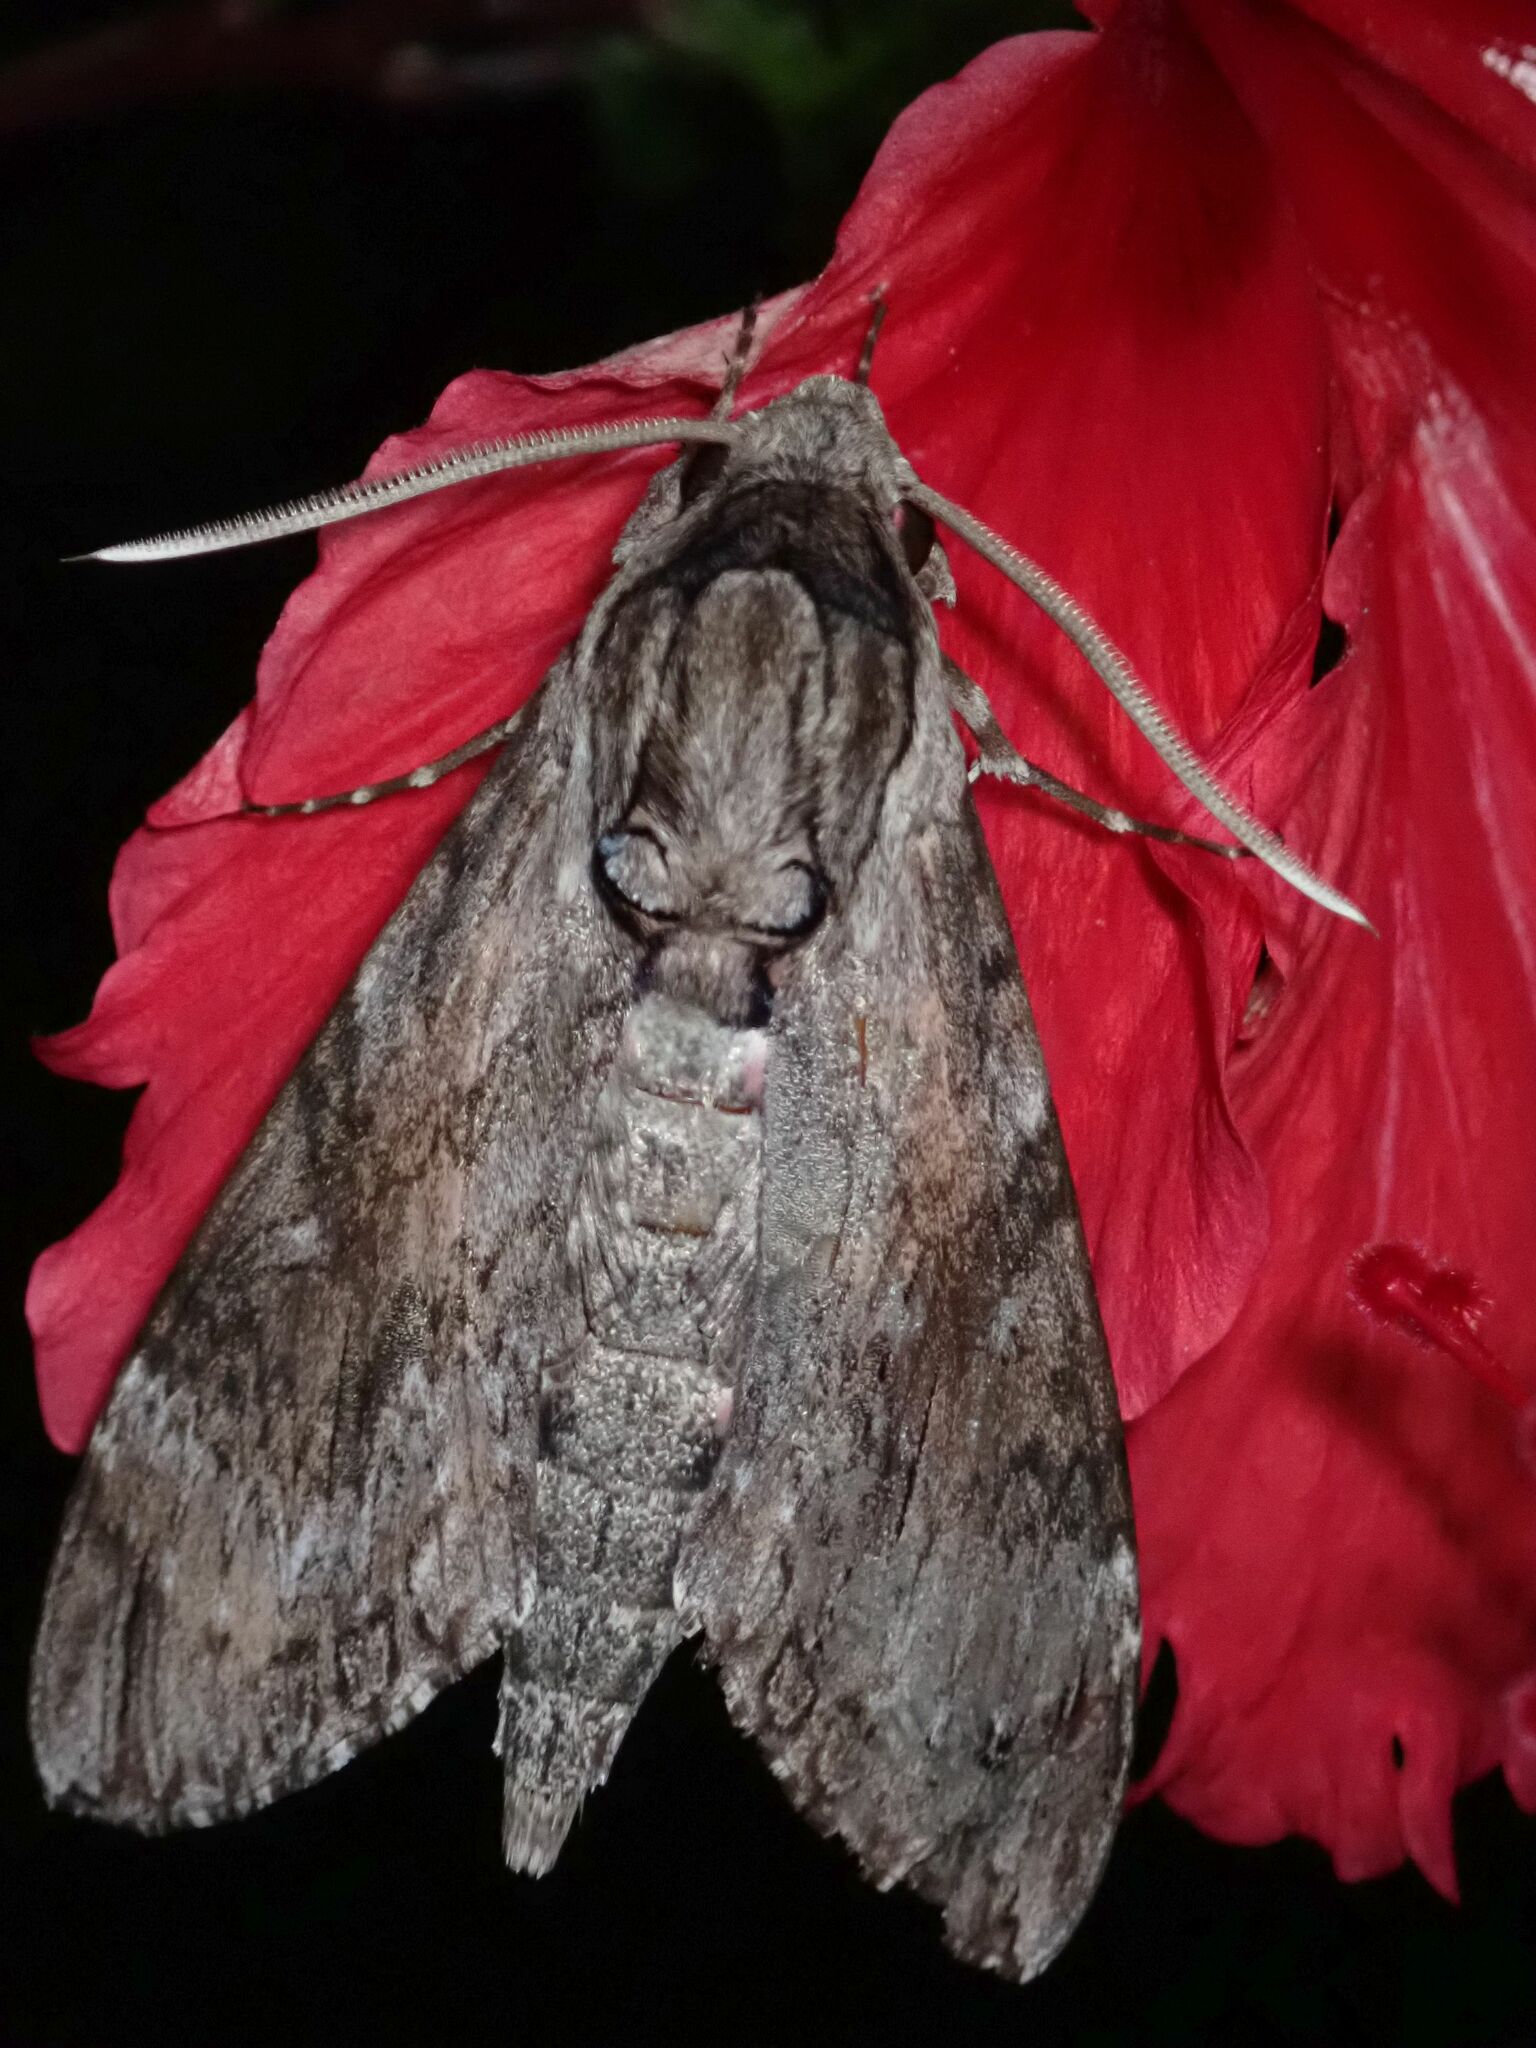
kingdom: Animalia
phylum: Arthropoda
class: Insecta
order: Lepidoptera
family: Sphingidae
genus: Agrius
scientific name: Agrius convolvuli
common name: Convolvulus hawkmoth
